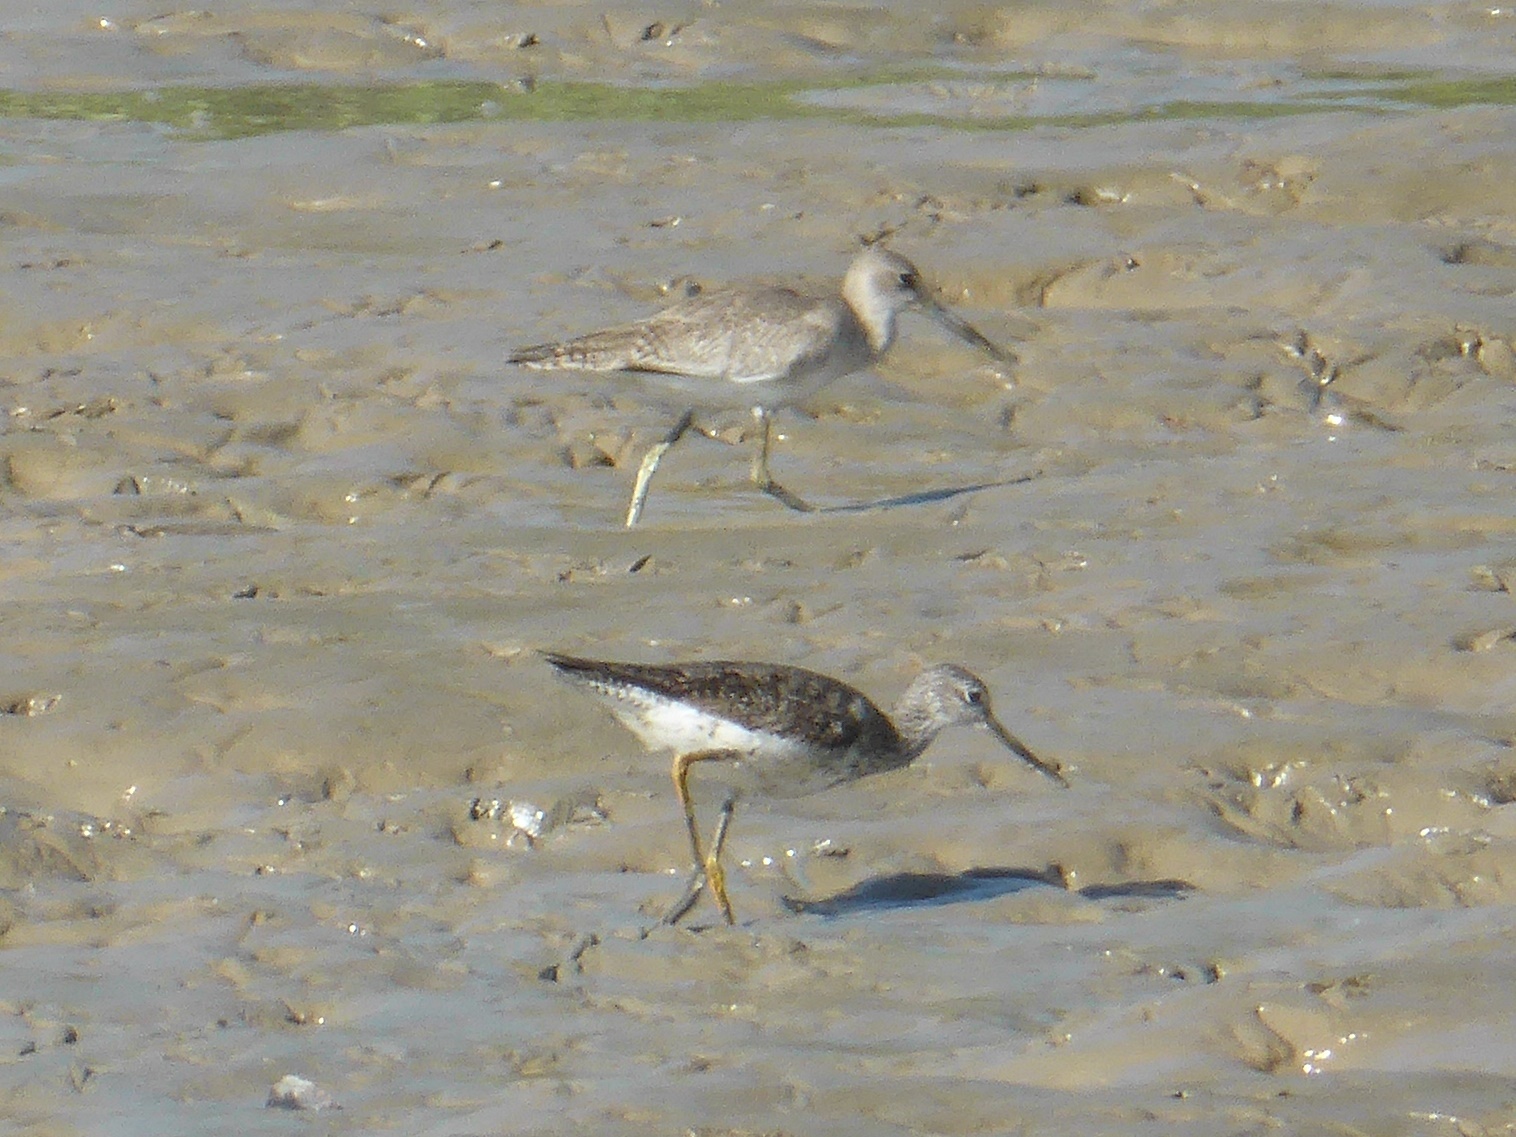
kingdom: Animalia
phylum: Chordata
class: Aves
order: Charadriiformes
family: Scolopacidae
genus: Tringa
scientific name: Tringa semipalmata
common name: Willet
